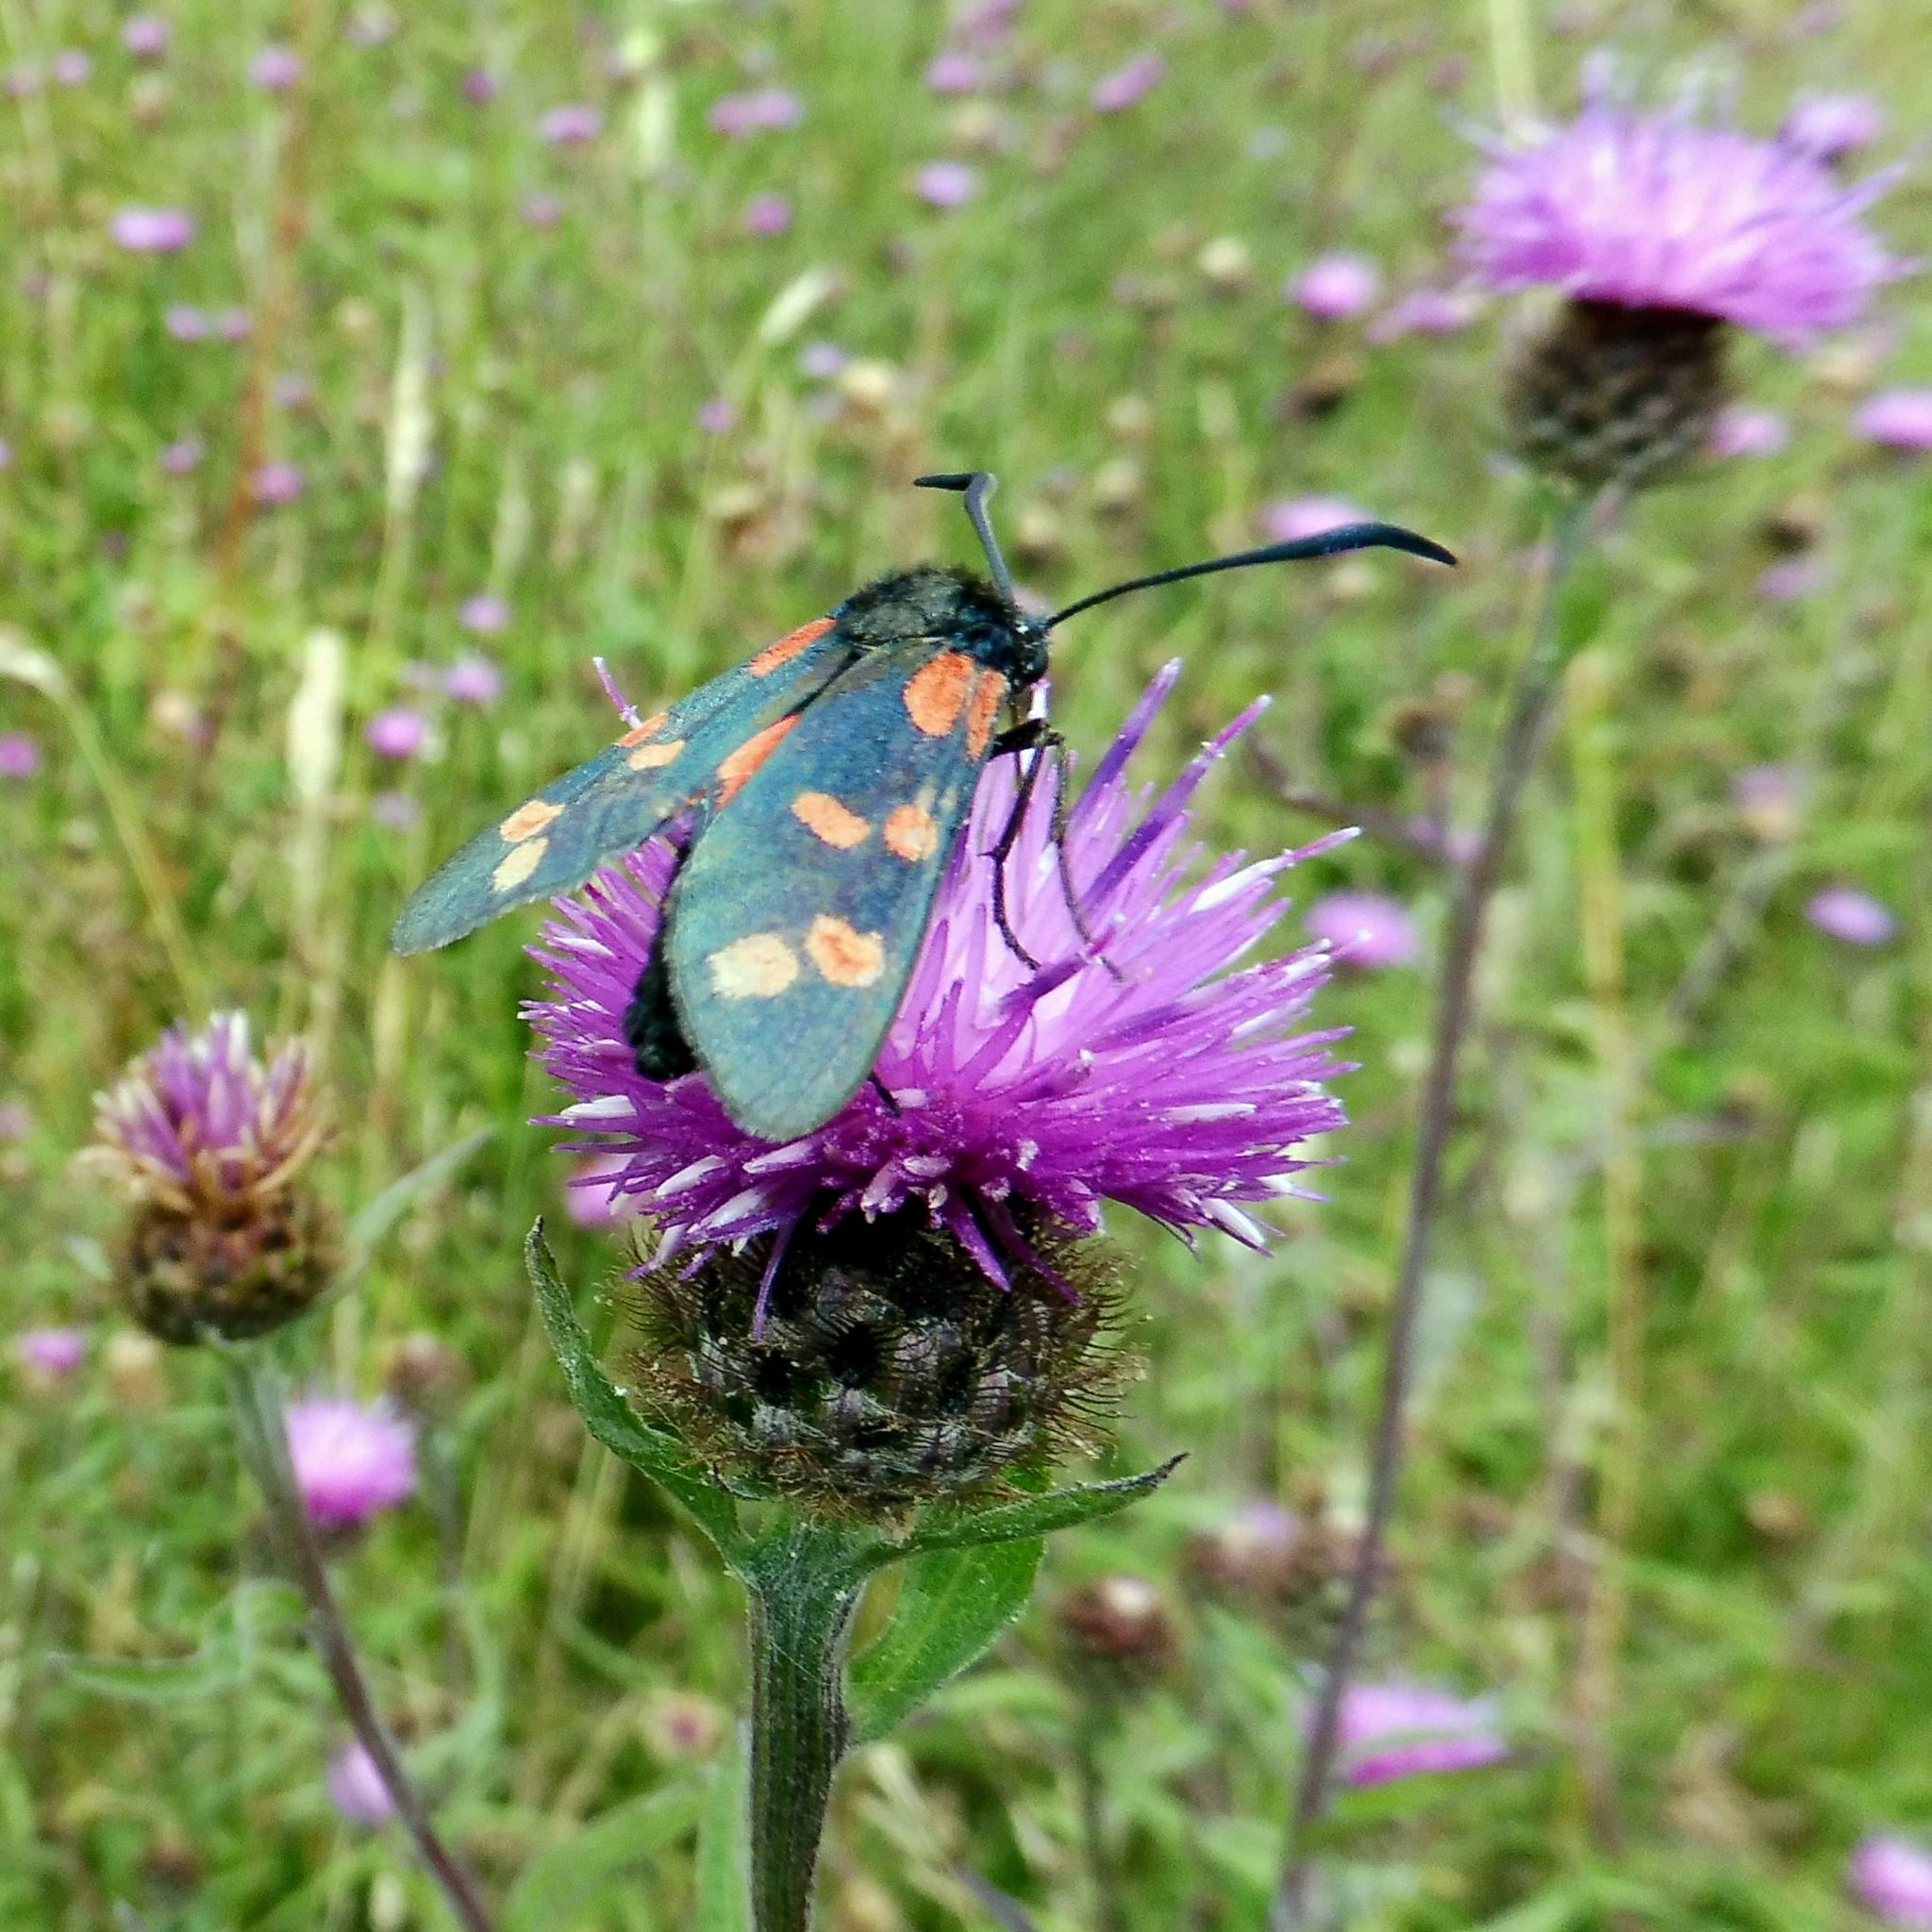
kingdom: Animalia
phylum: Arthropoda
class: Insecta
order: Lepidoptera
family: Zygaenidae
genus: Zygaena
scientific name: Zygaena filipendulae
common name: Six-spot burnet
